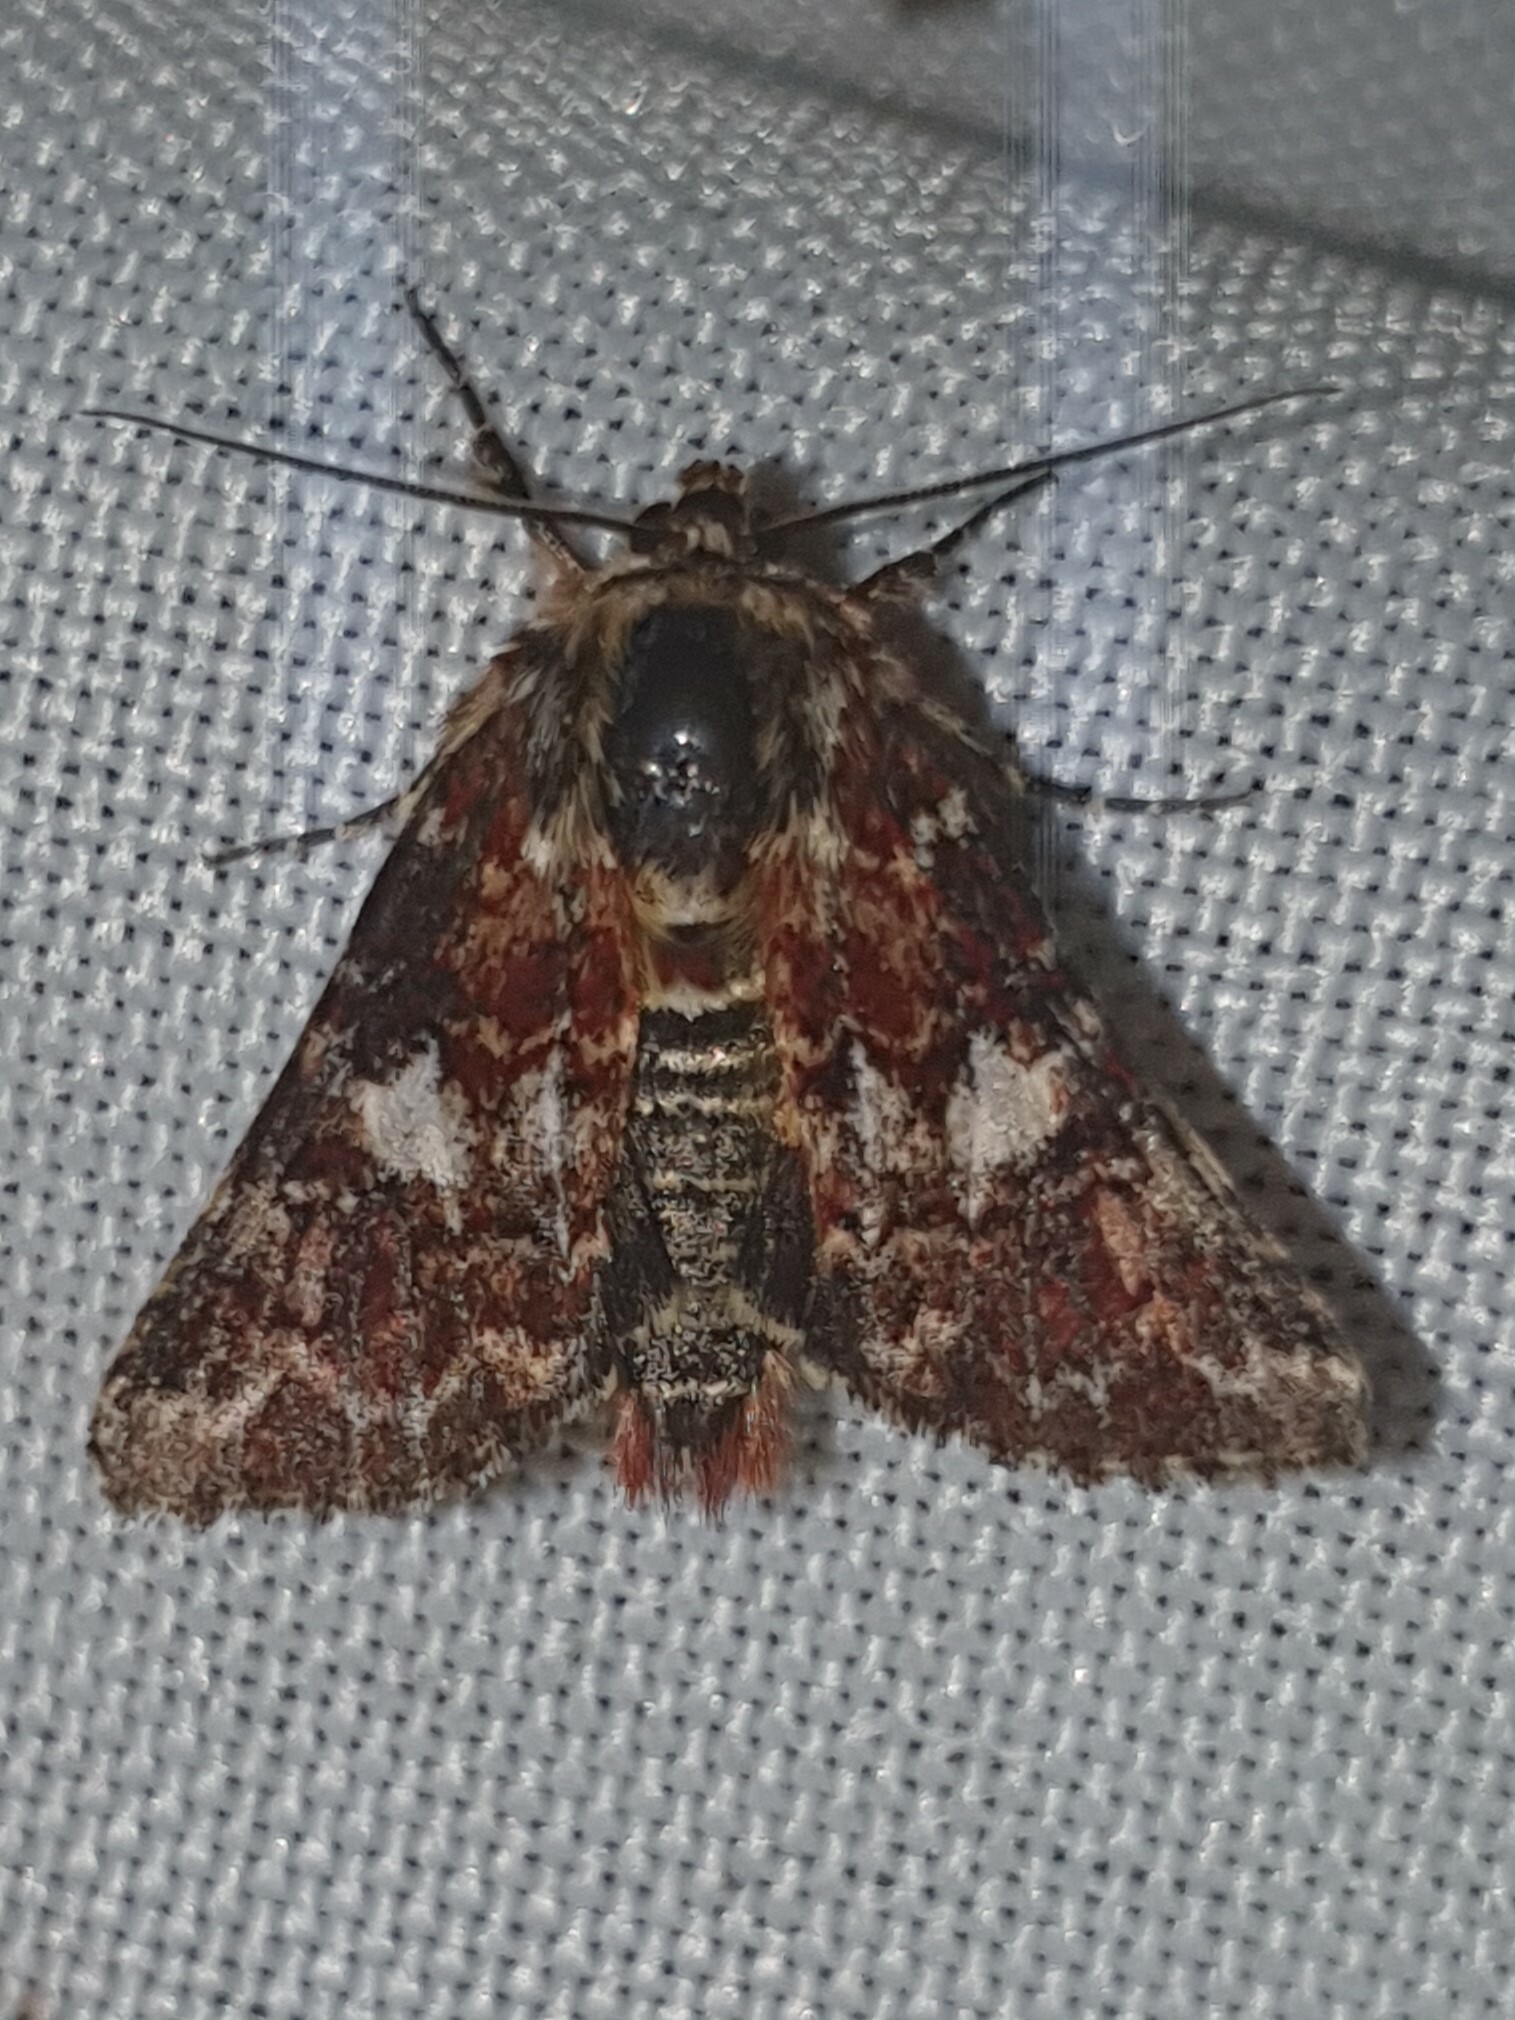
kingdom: Animalia
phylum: Arthropoda
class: Insecta
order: Lepidoptera
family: Noctuidae
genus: Anarta
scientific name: Anarta myrtilli
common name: Beautiful yellow underwing
